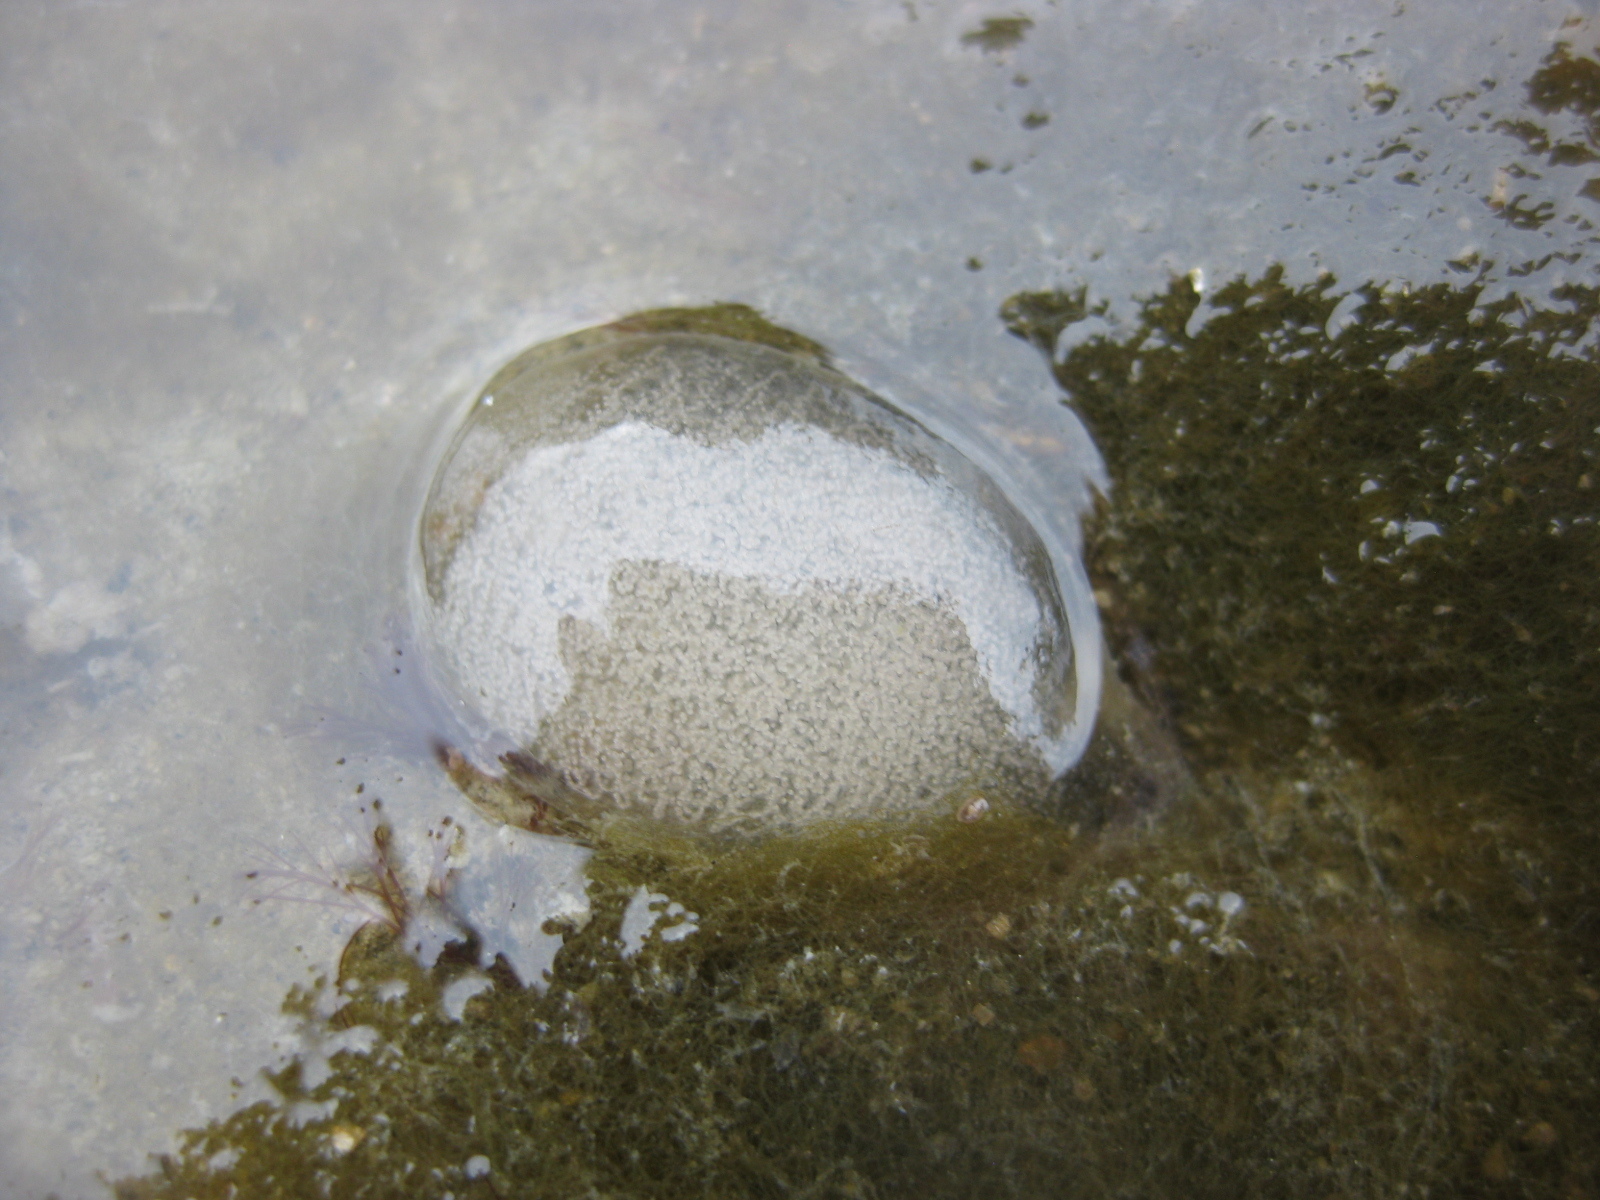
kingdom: Animalia
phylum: Mollusca
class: Gastropoda
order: Cephalaspidea
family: Aglajidae
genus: Melanochlamys
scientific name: Melanochlamys cylindrica
